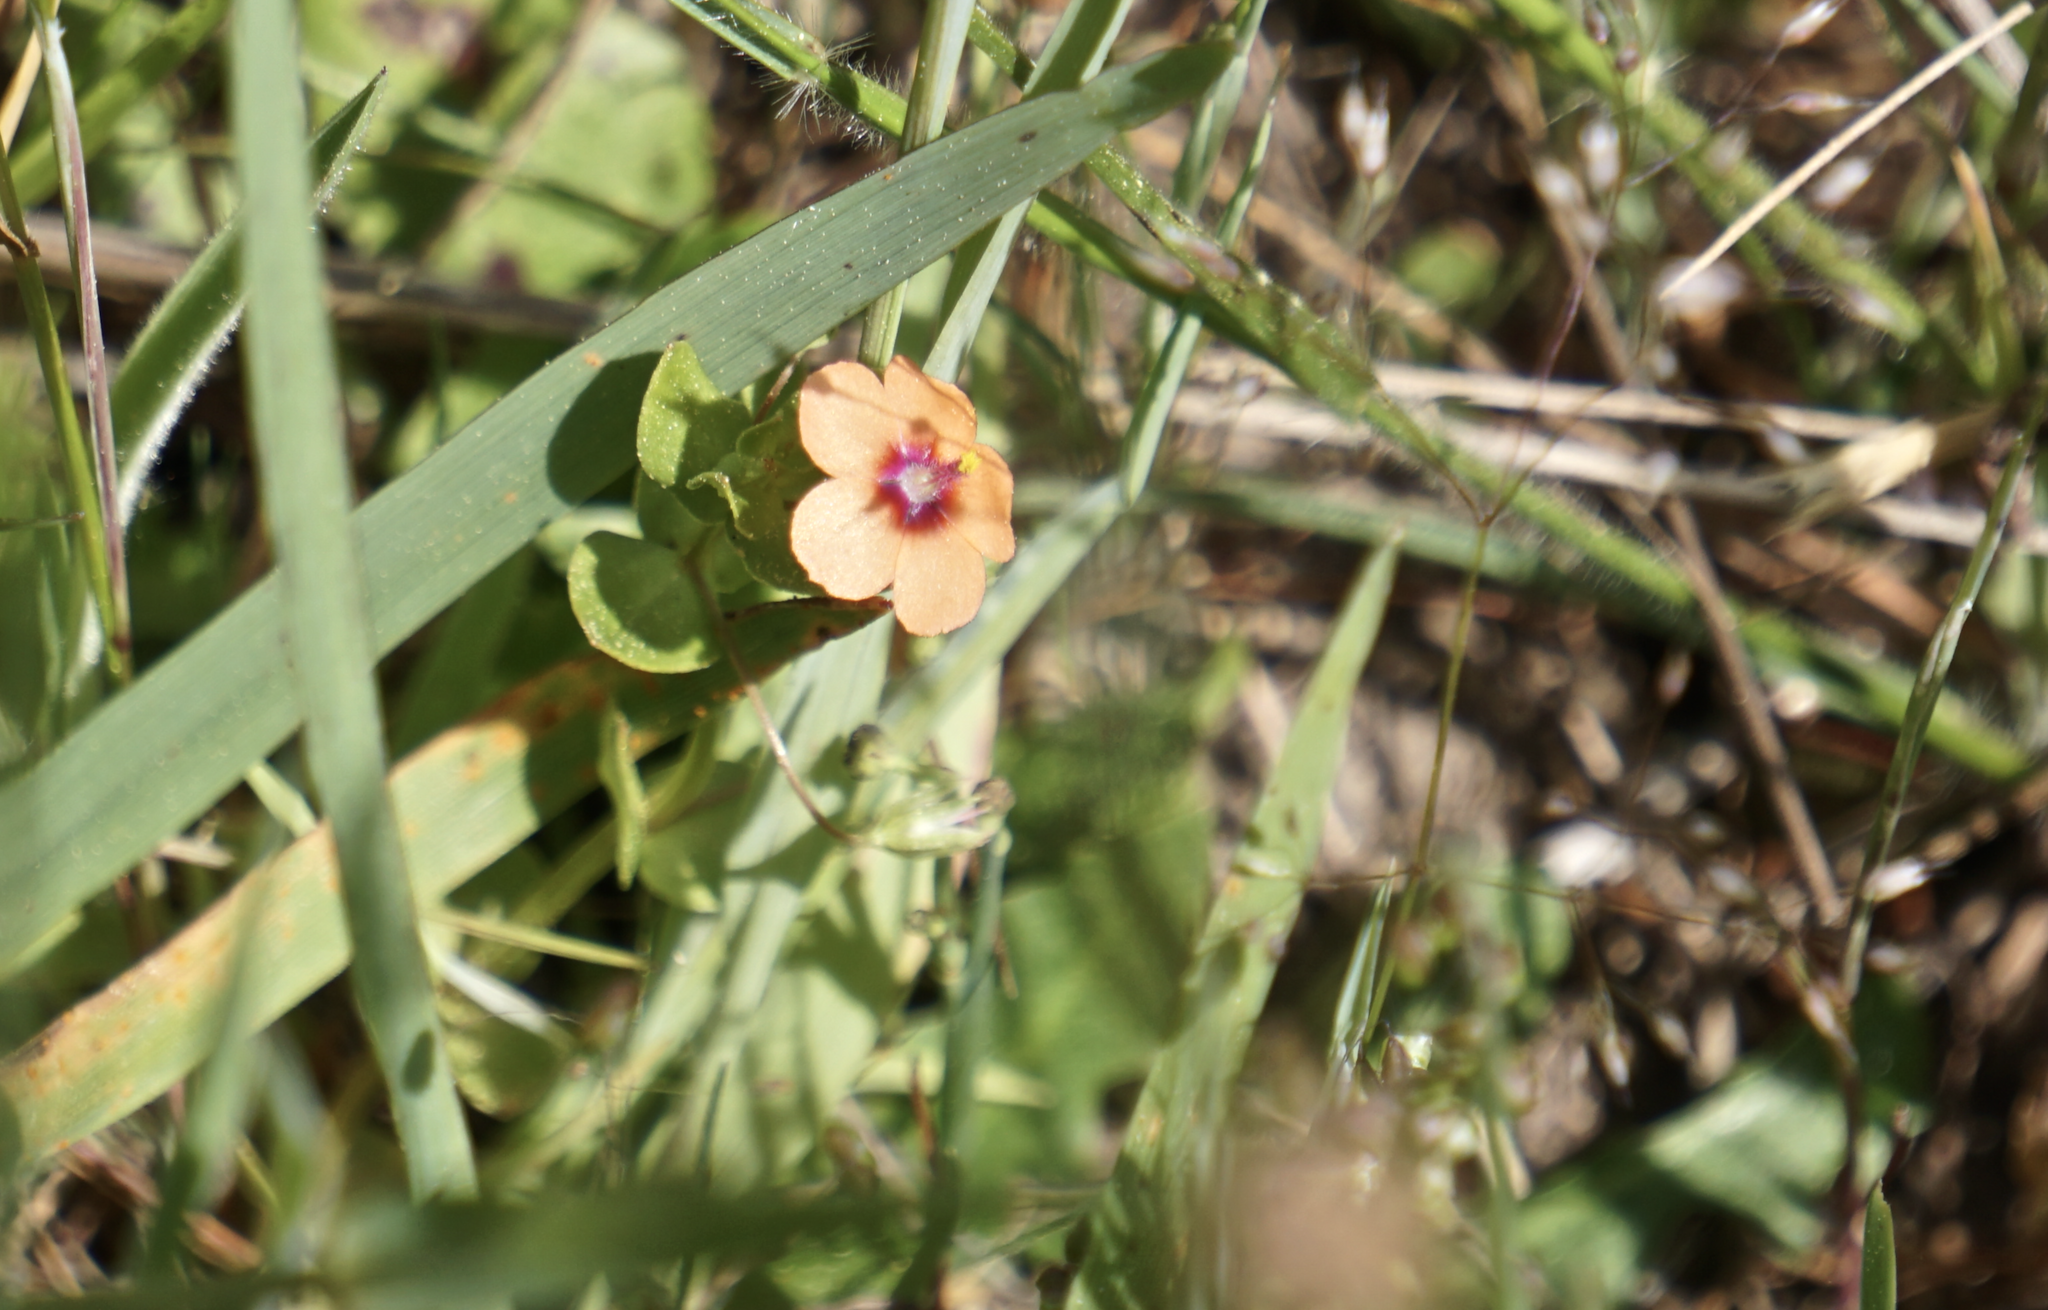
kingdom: Plantae
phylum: Tracheophyta
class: Magnoliopsida
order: Ericales
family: Primulaceae
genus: Lysimachia
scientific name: Lysimachia arvensis
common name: Scarlet pimpernel
